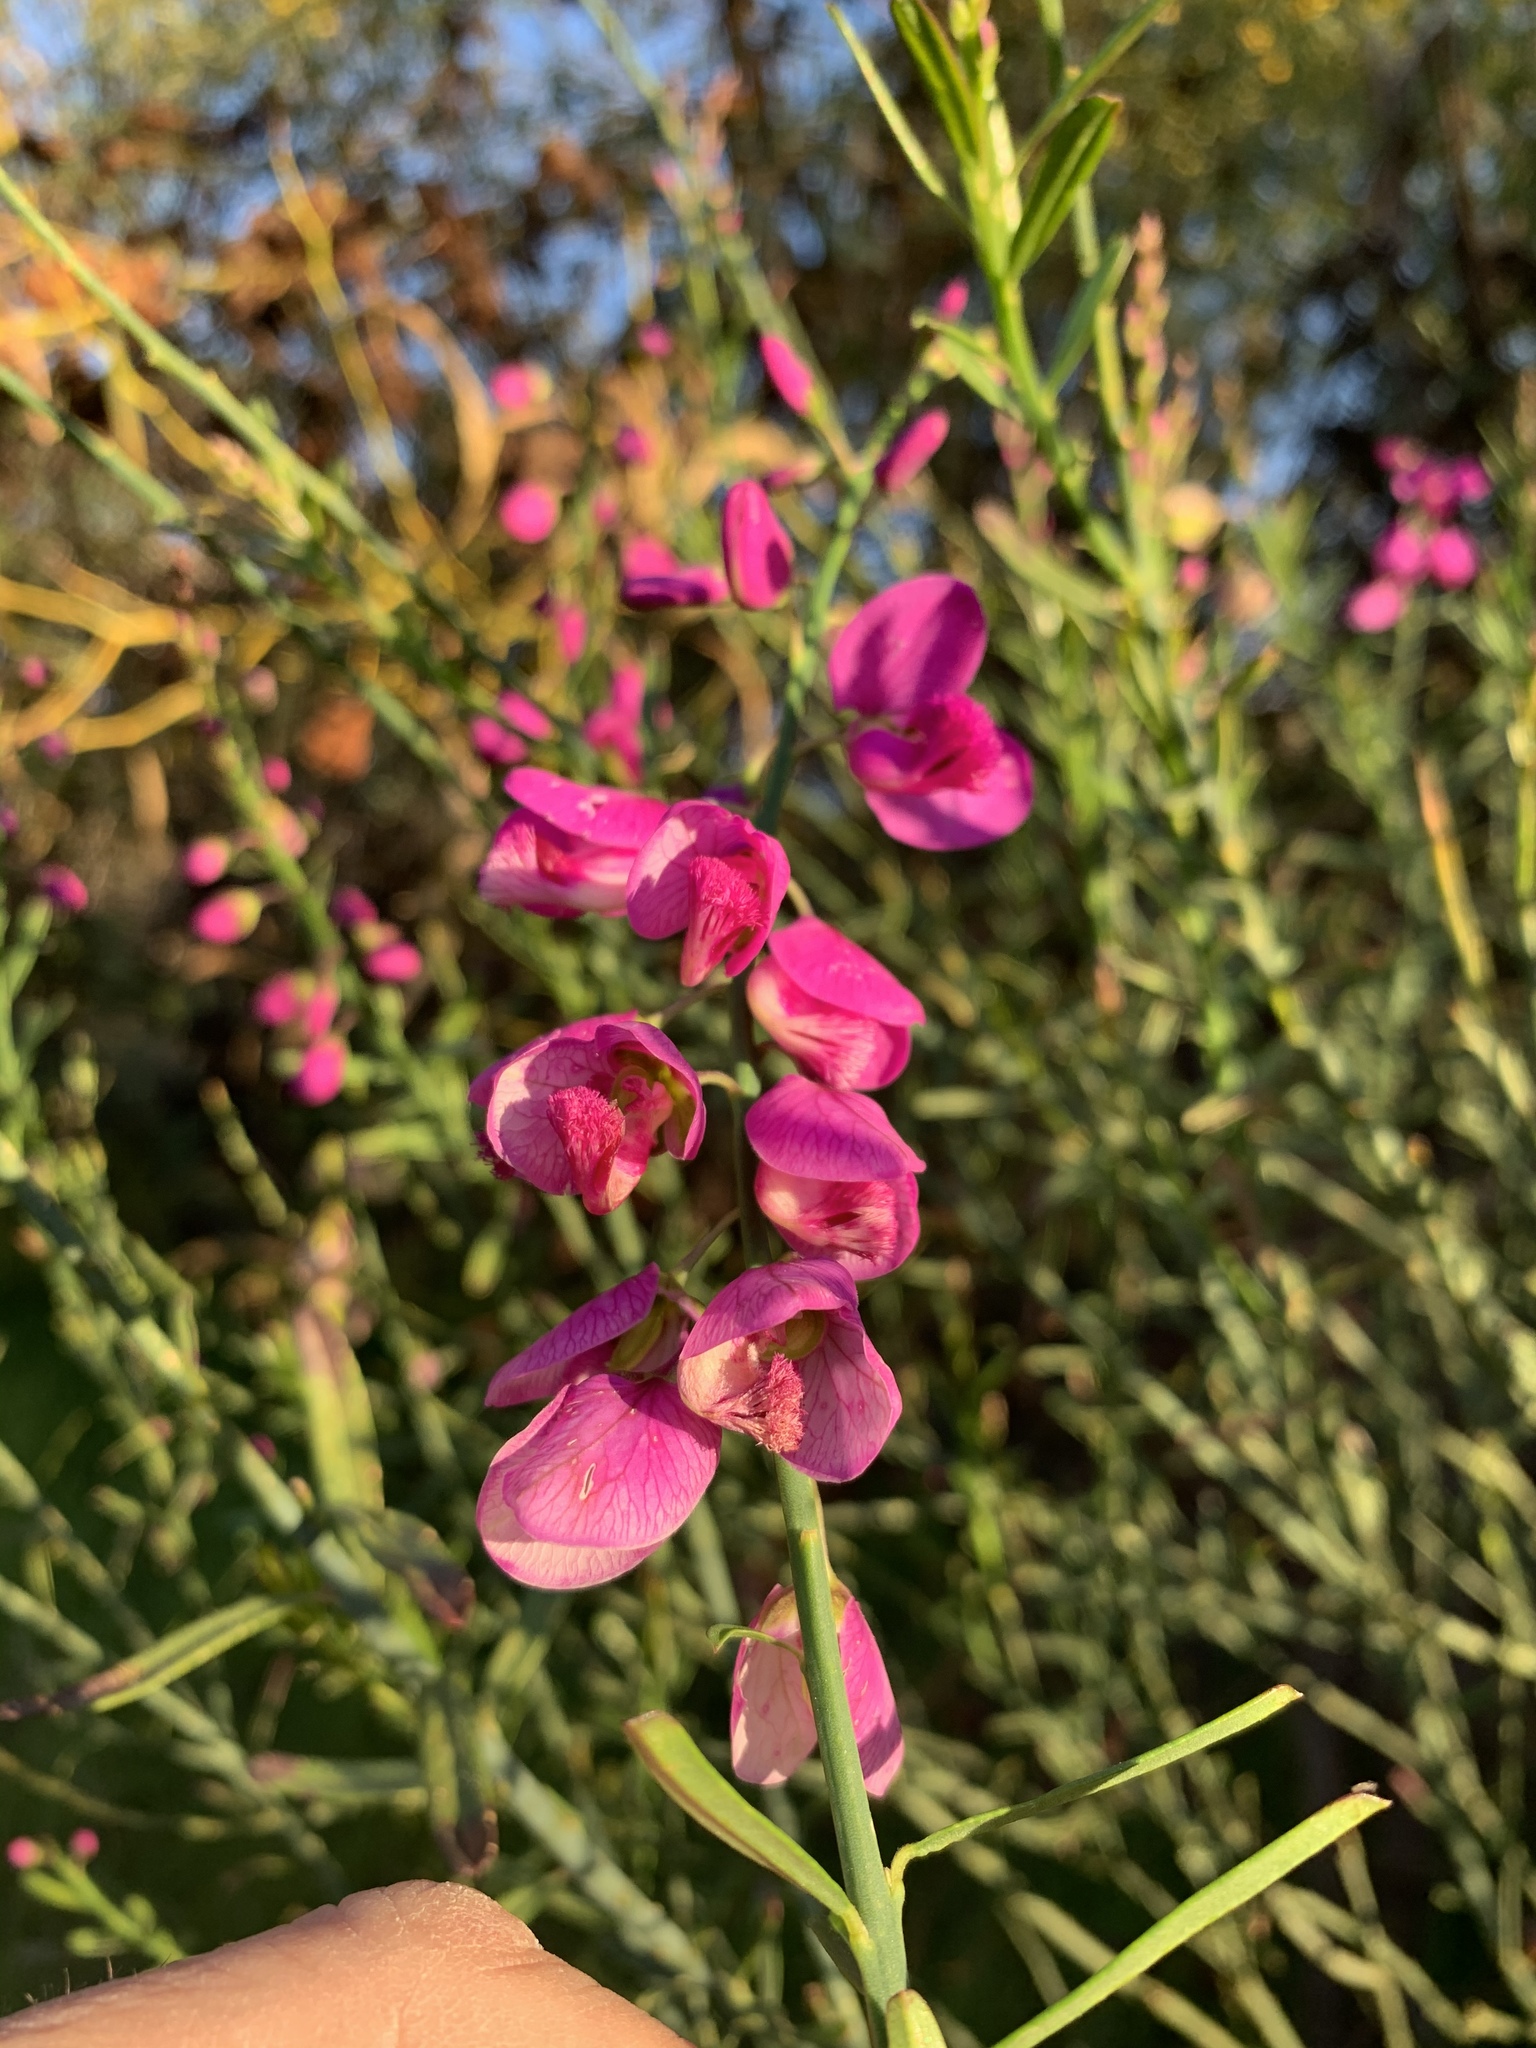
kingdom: Plantae
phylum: Tracheophyta
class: Magnoliopsida
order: Fabales
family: Polygalaceae
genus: Polygala
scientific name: Polygala virgata
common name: Milkwort
